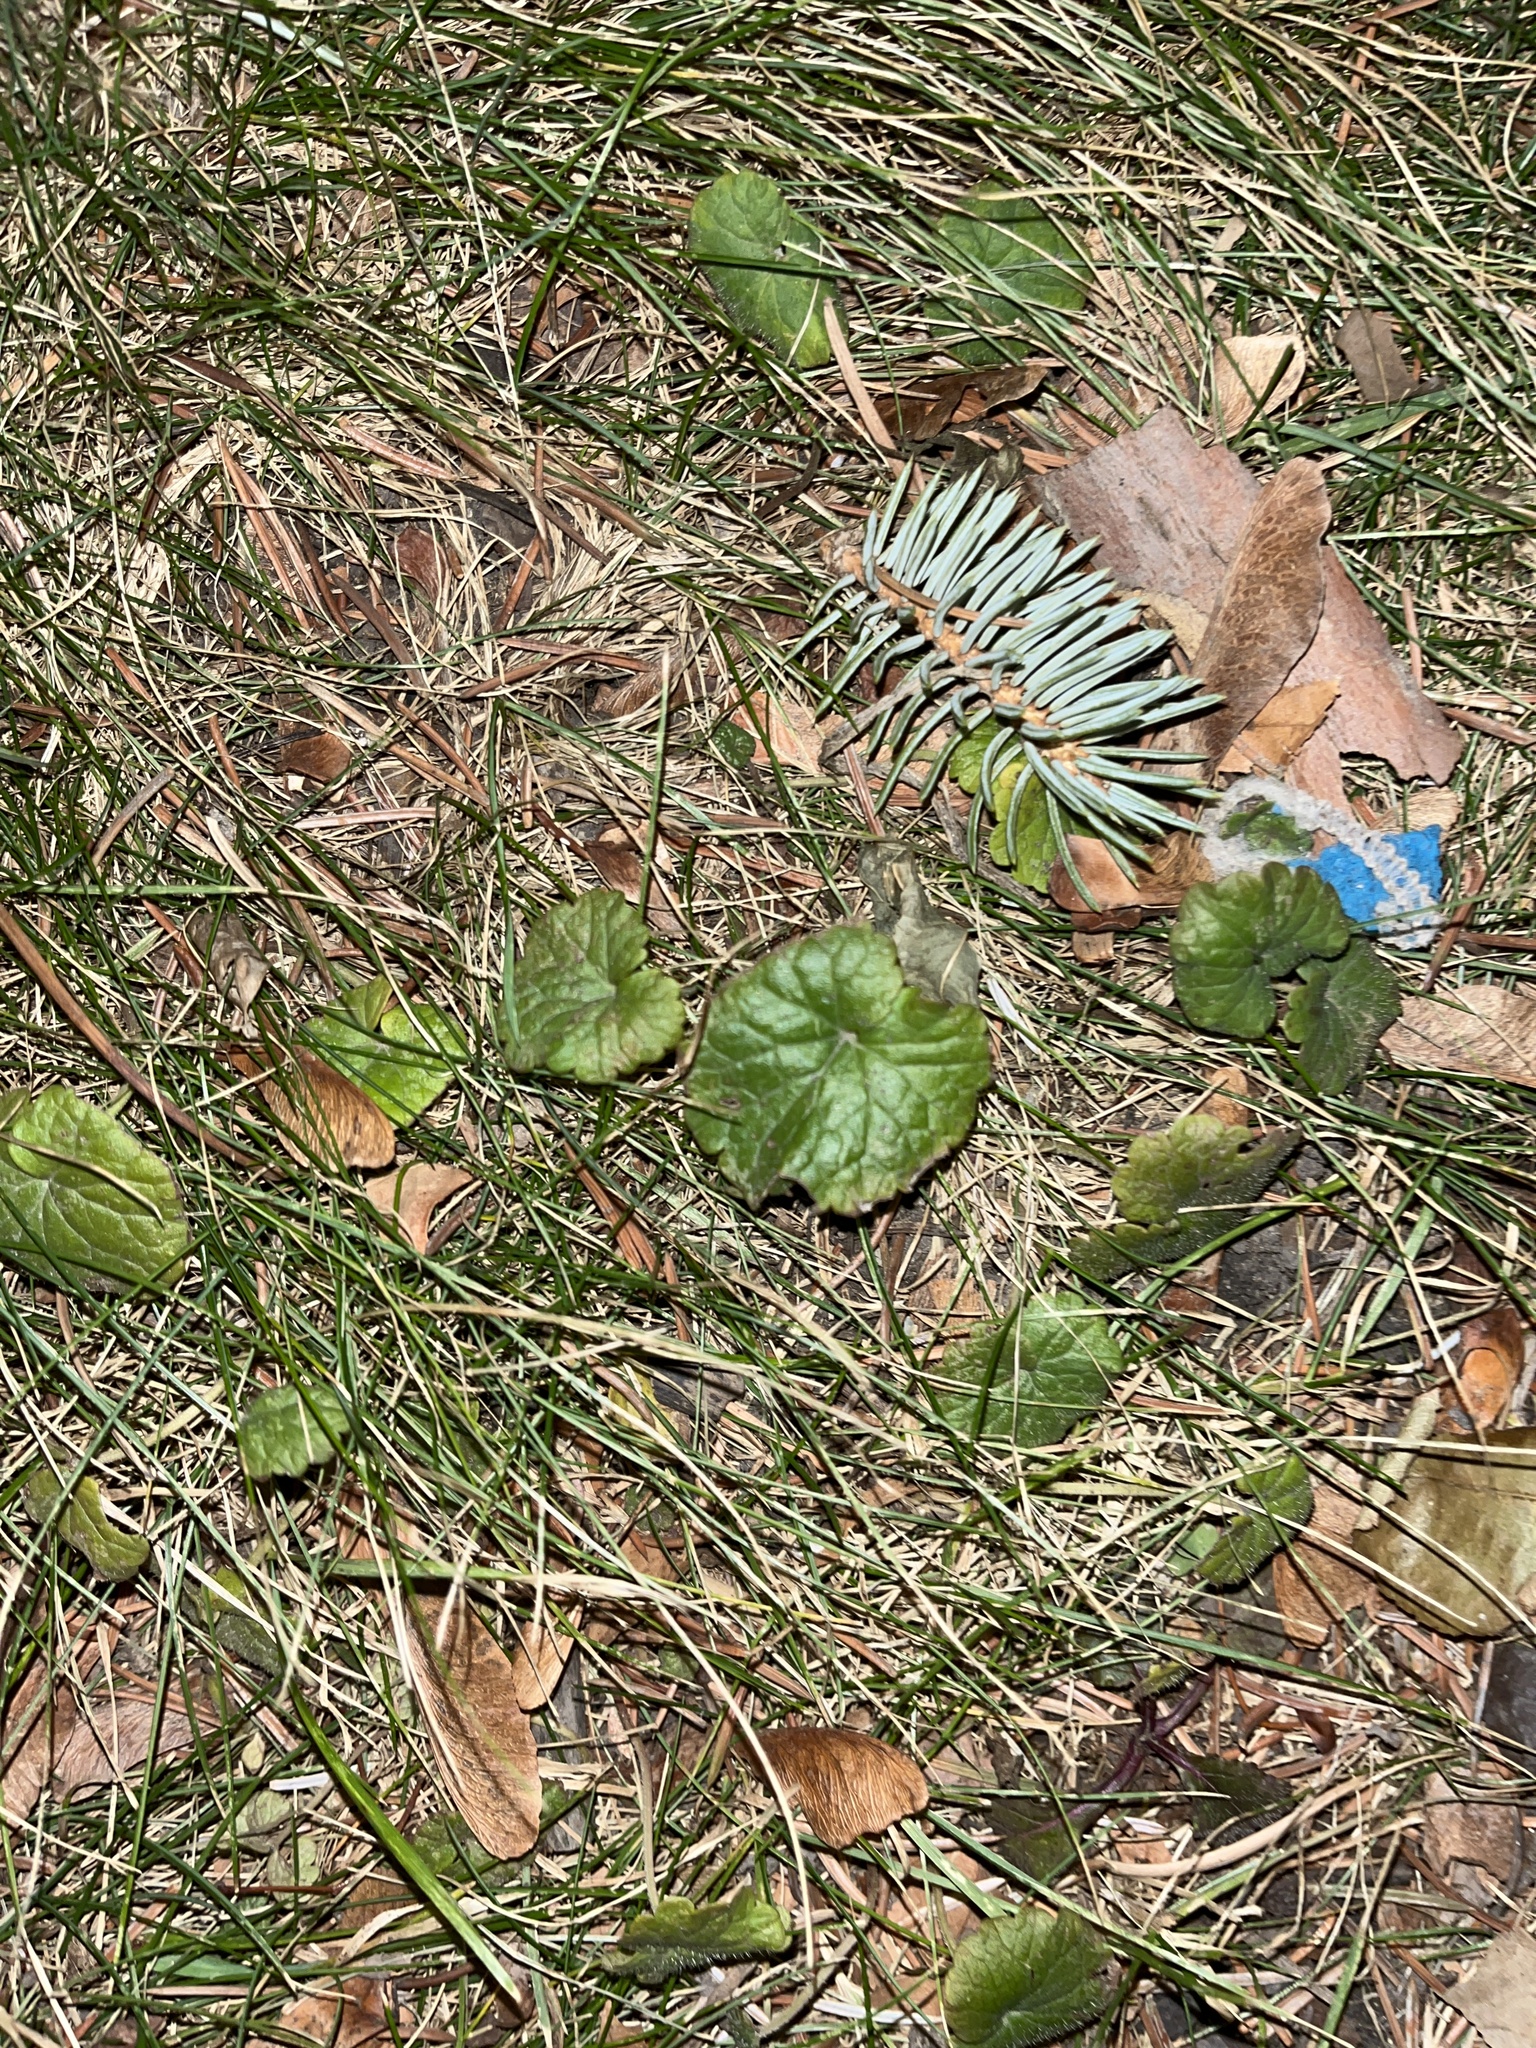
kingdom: Plantae
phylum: Tracheophyta
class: Magnoliopsida
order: Lamiales
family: Lamiaceae
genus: Glechoma
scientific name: Glechoma hederacea
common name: Ground ivy
